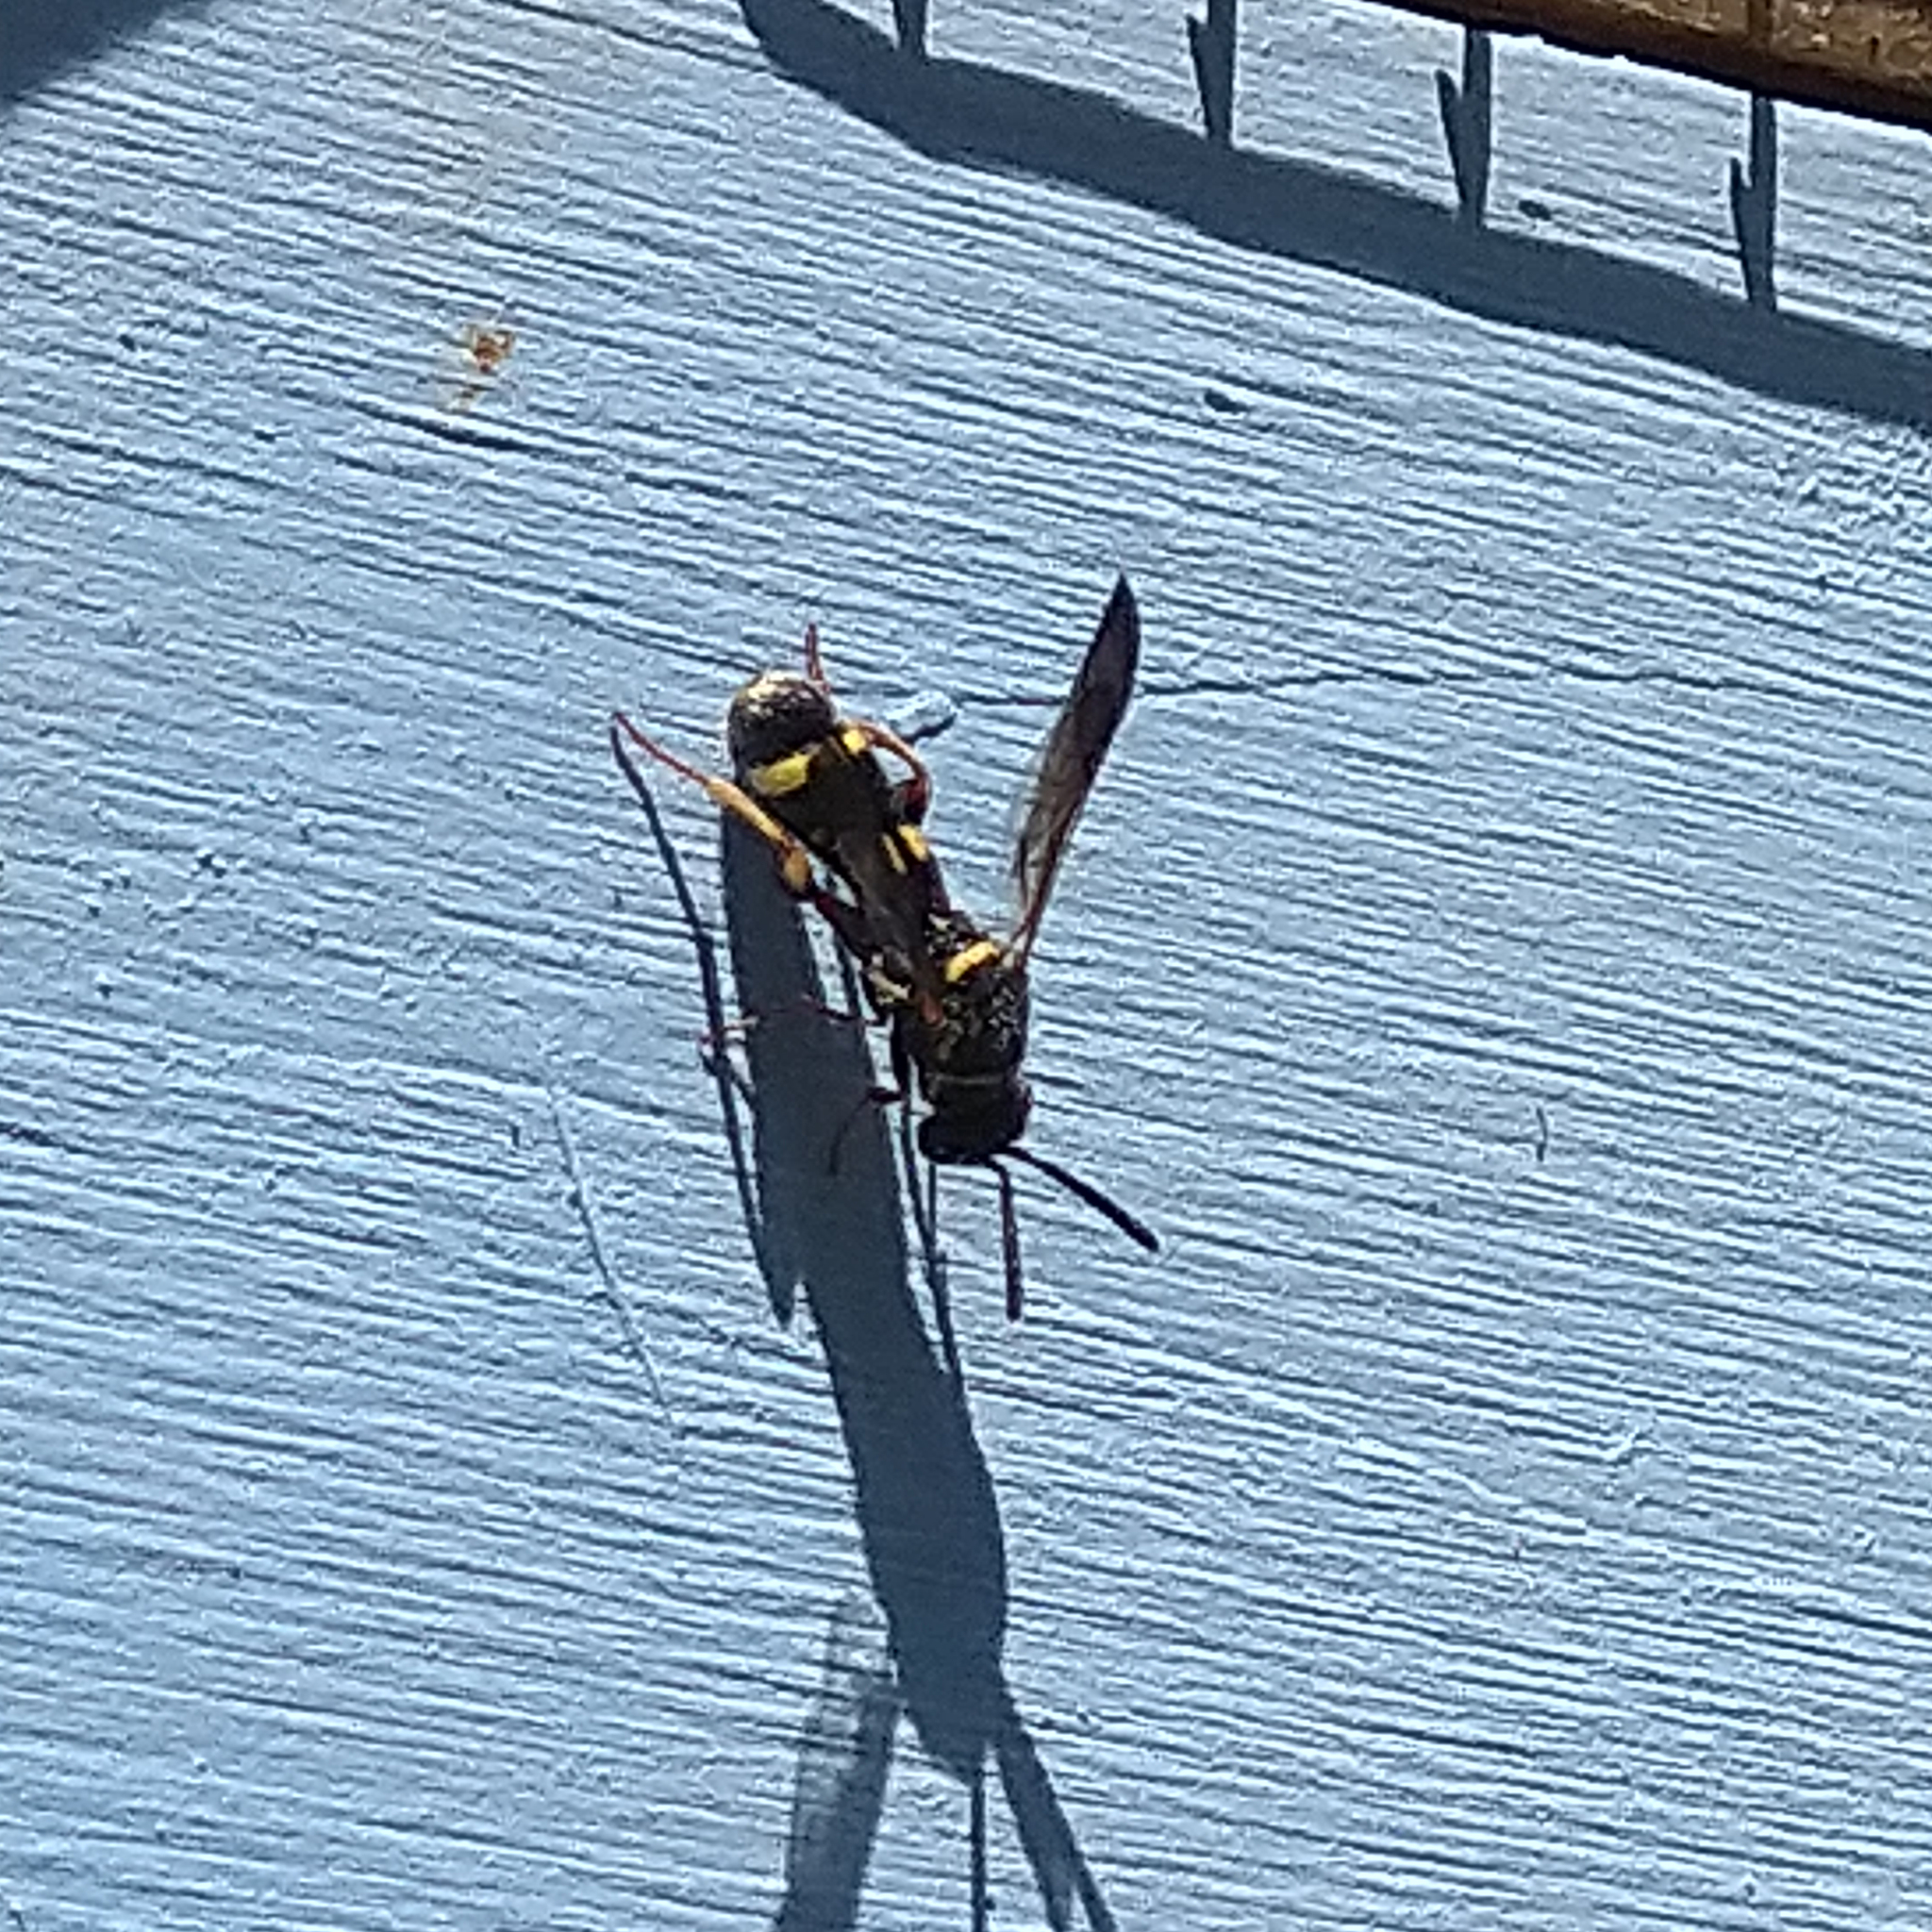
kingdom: Animalia
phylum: Arthropoda
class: Insecta
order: Hymenoptera
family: Leucospidae
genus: Leucospis
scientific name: Leucospis affinis
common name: Wasp
